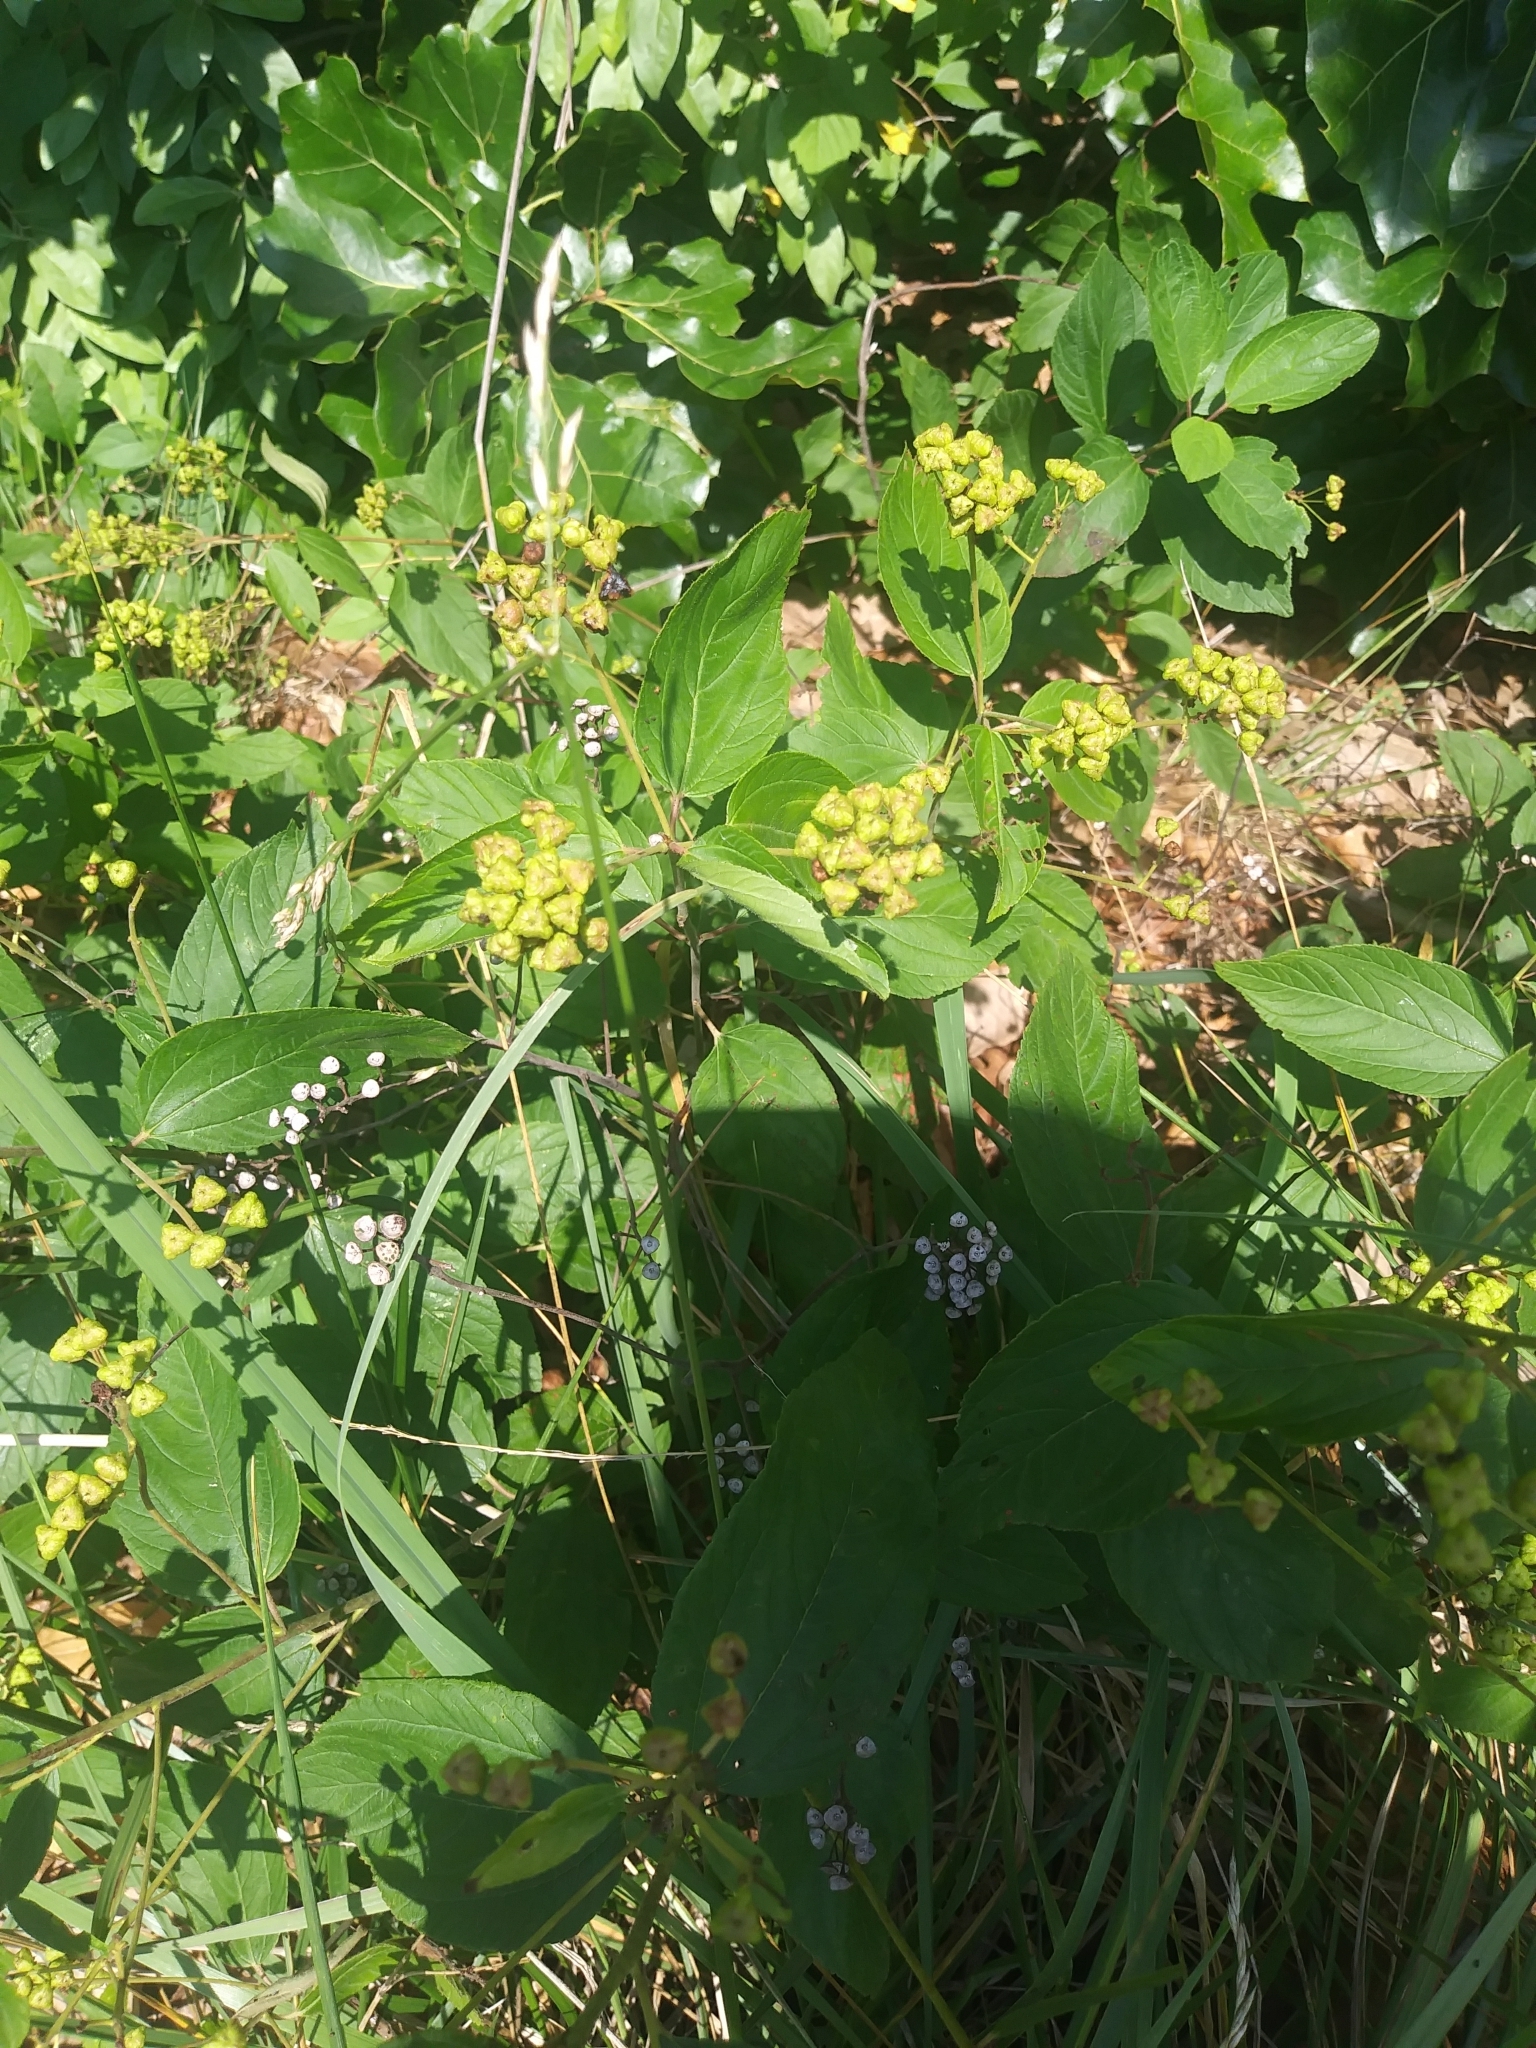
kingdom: Plantae
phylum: Tracheophyta
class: Magnoliopsida
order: Rosales
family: Rhamnaceae
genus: Ceanothus
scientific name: Ceanothus americanus
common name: Redroot
